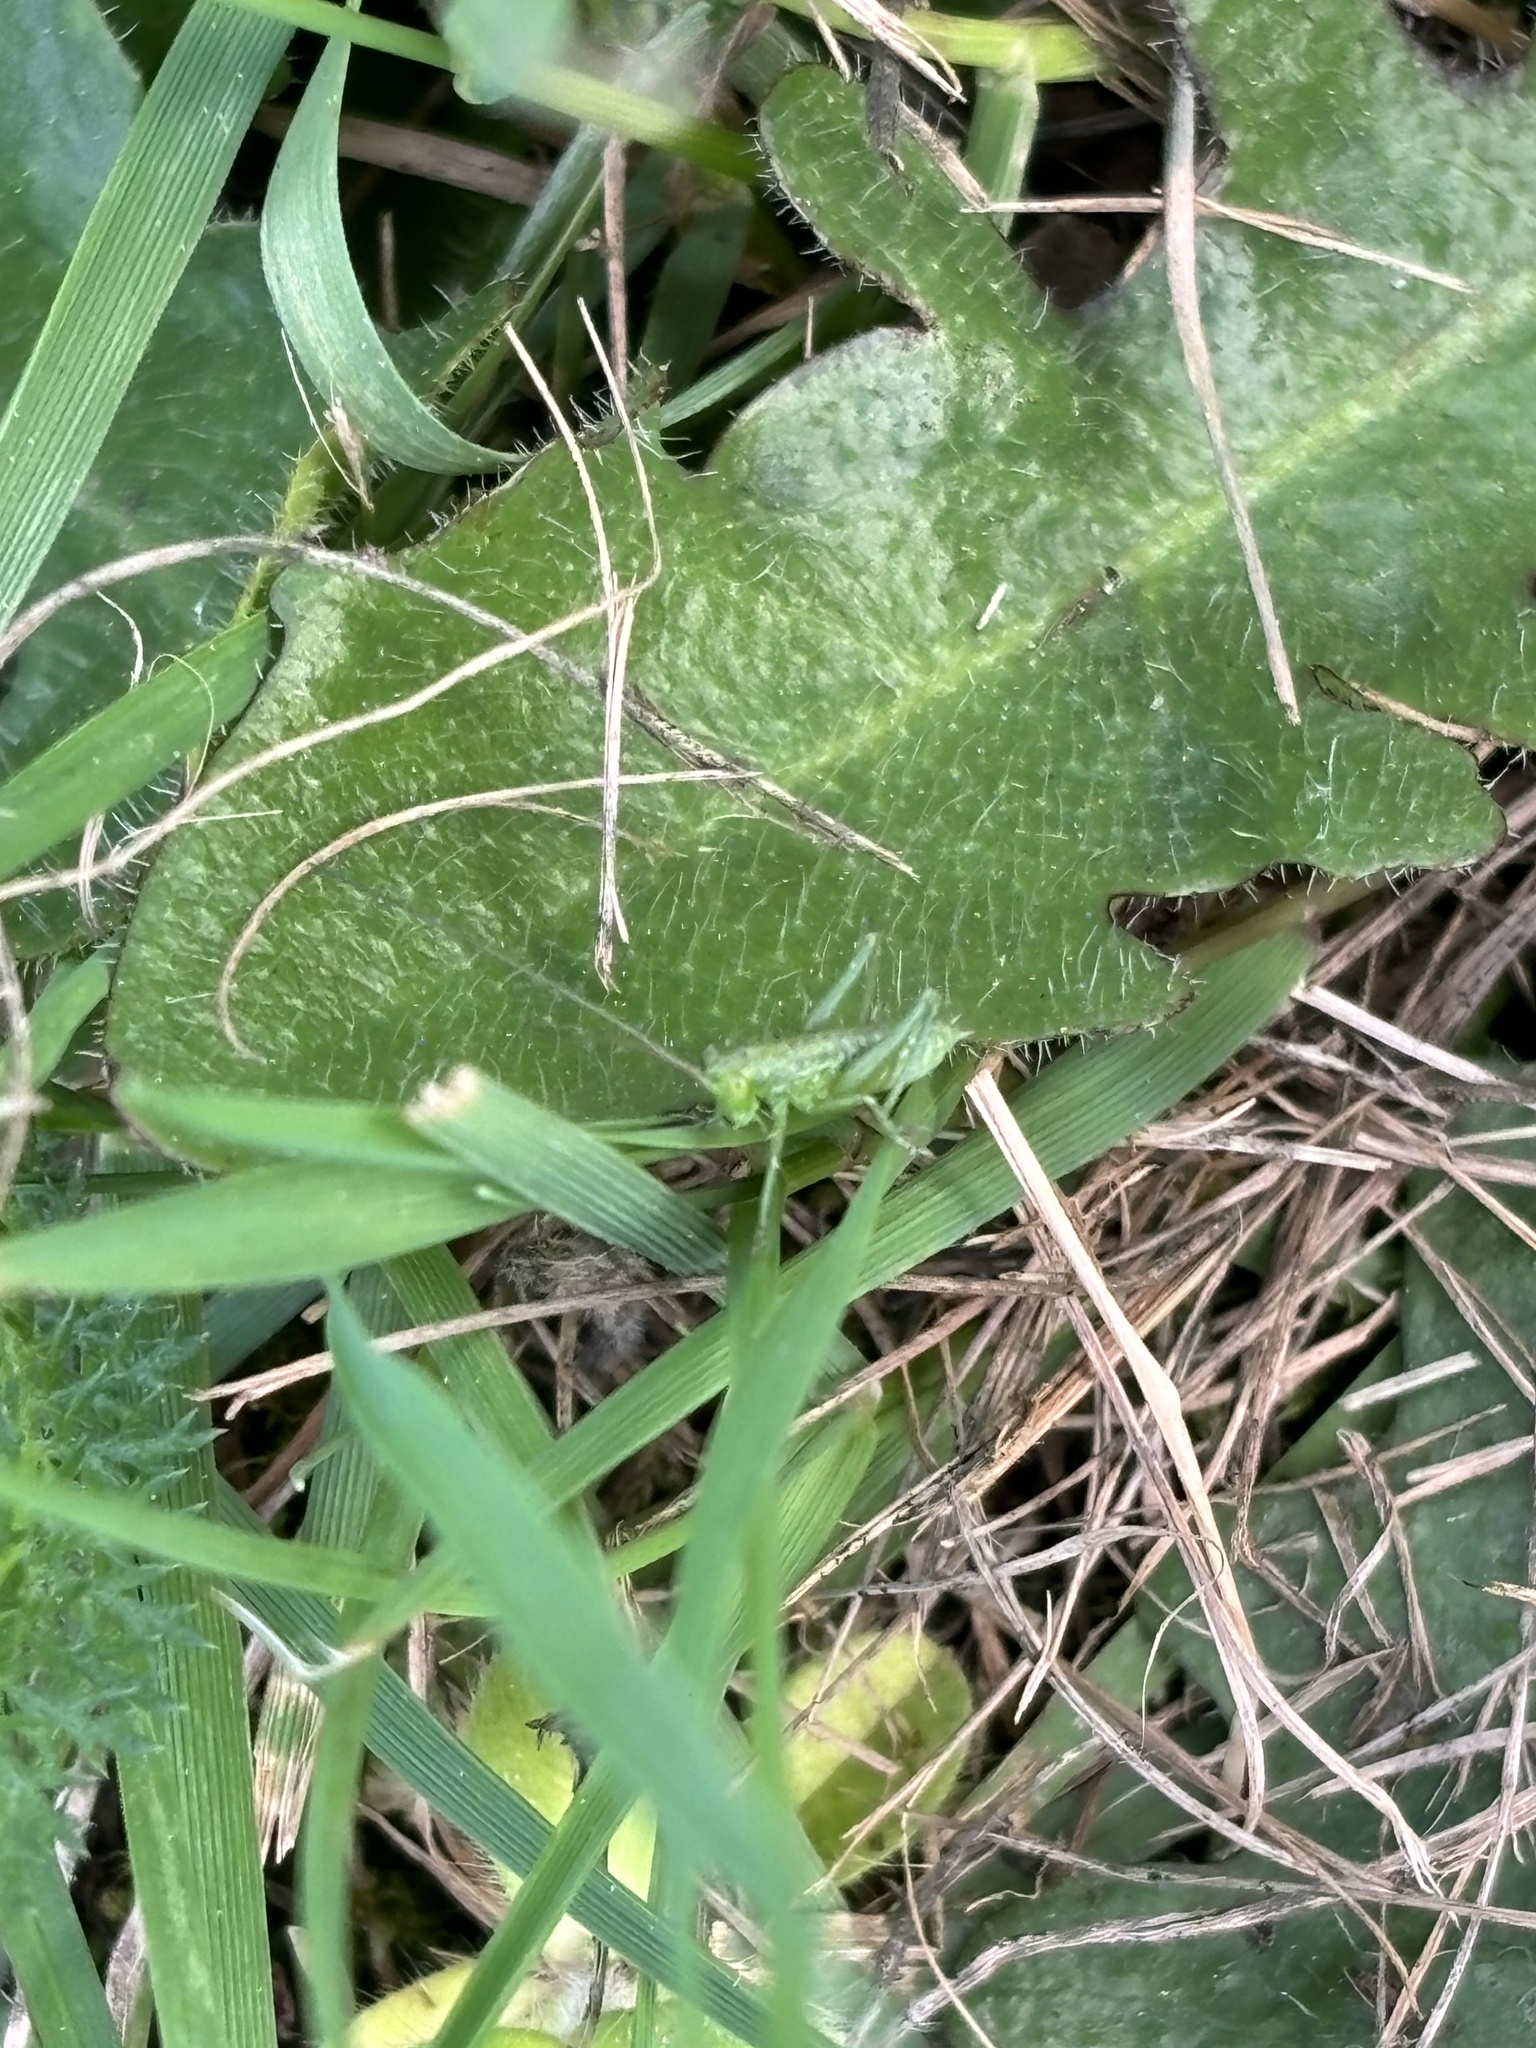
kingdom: Animalia
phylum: Arthropoda
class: Insecta
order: Orthoptera
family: Tettigoniidae
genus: Tettigonia
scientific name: Tettigonia viridissima
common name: Great green bush-cricket
